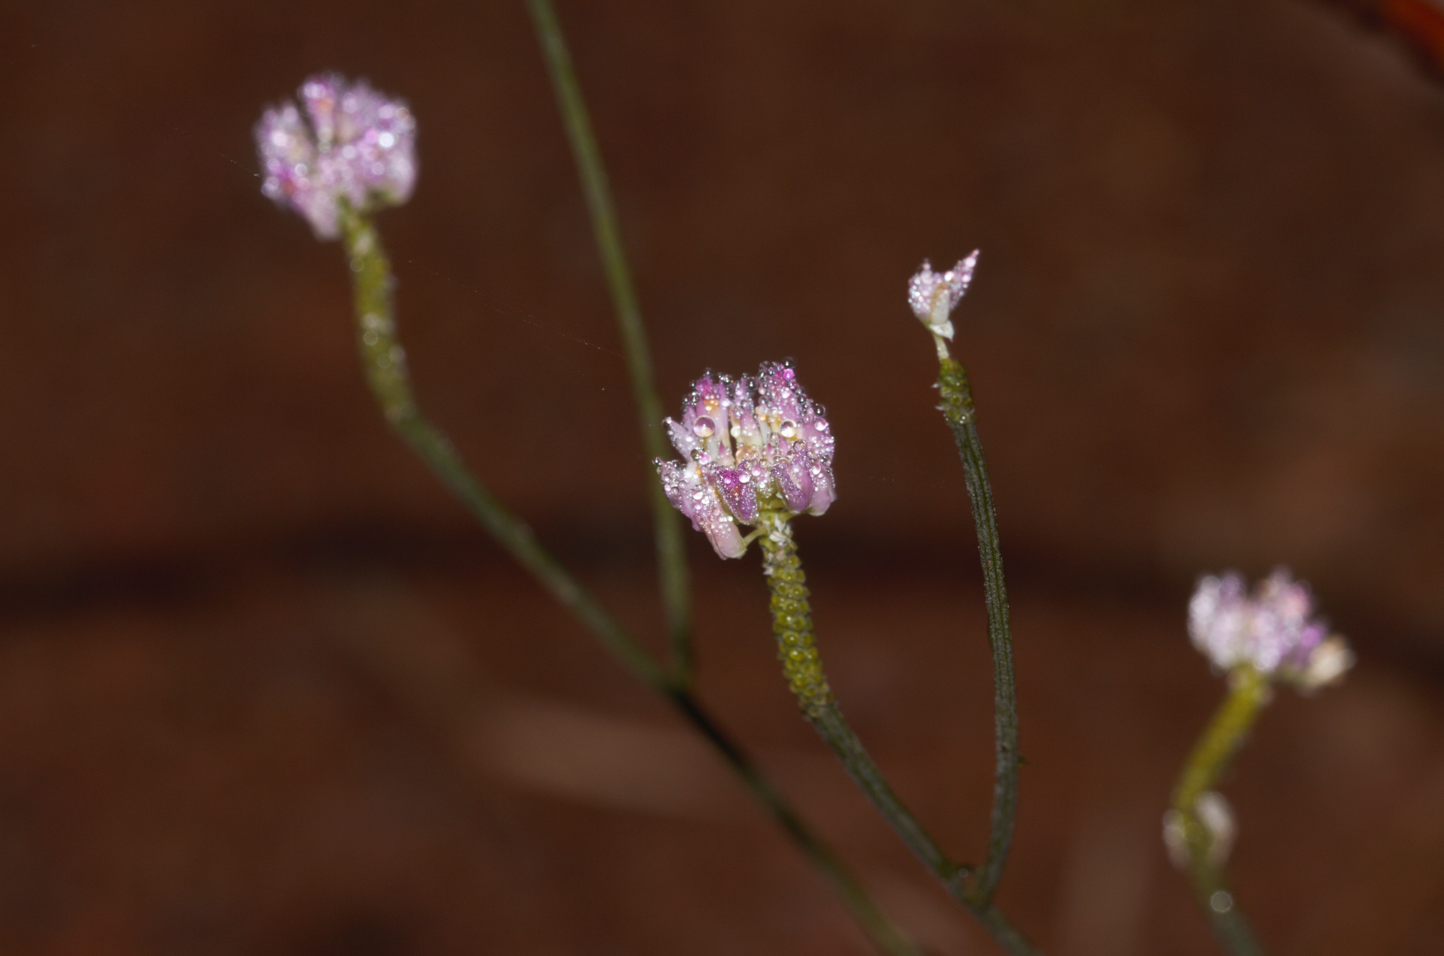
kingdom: Plantae
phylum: Tracheophyta
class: Magnoliopsida
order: Fabales
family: Polygalaceae
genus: Polygala
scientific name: Polygala longicaulis
